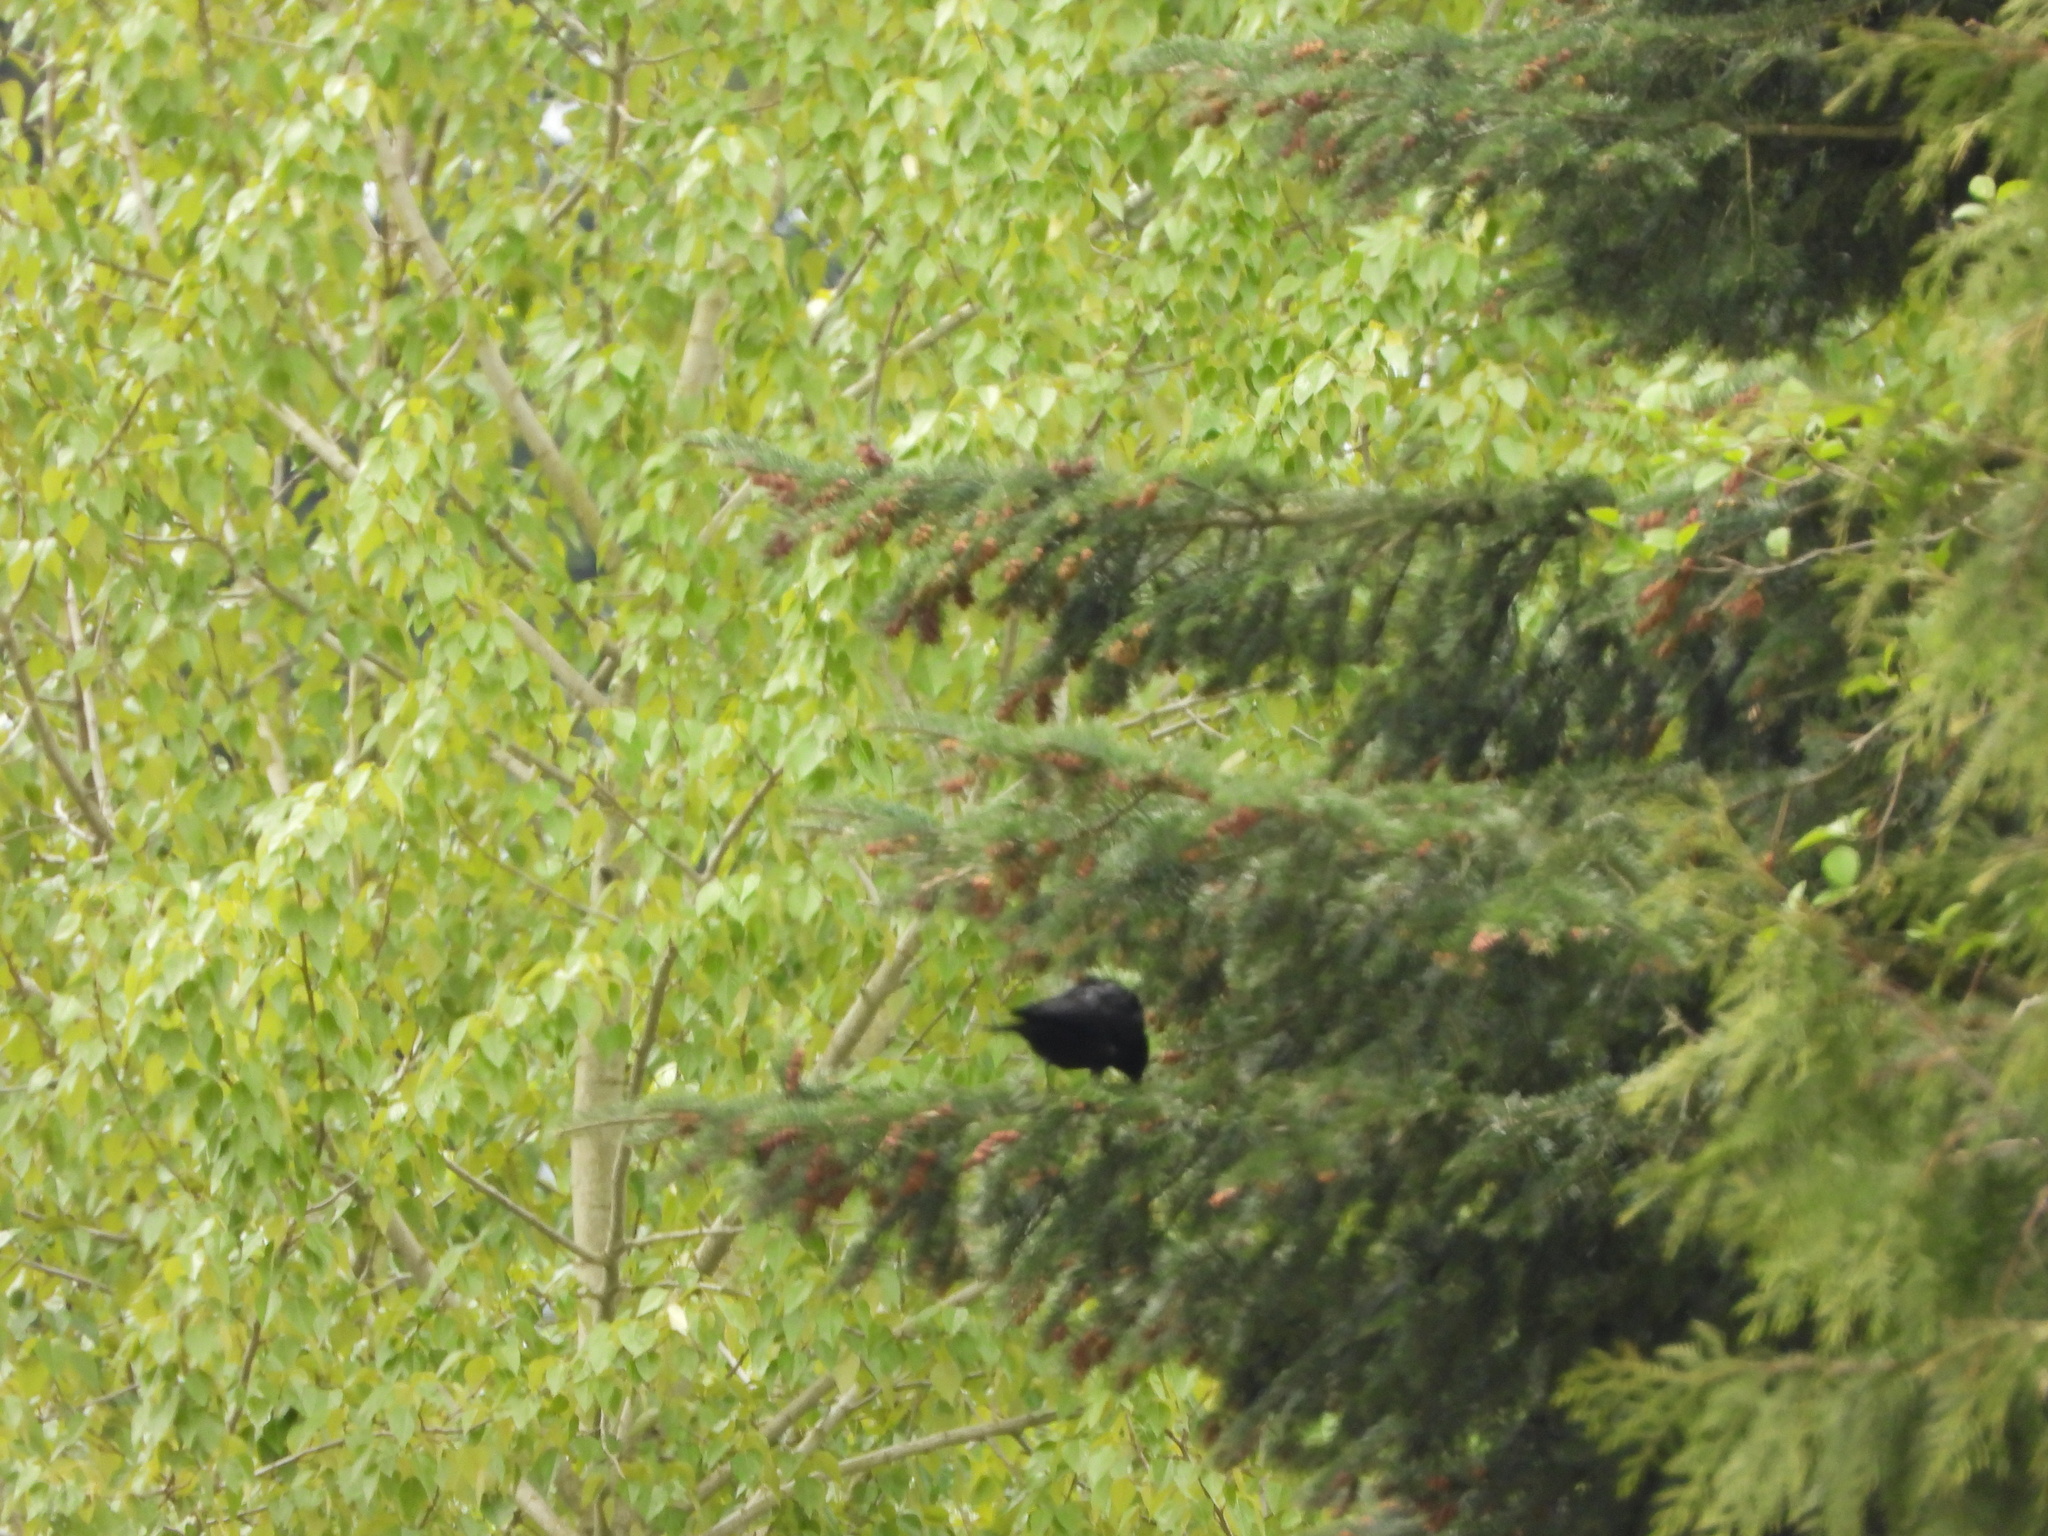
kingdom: Animalia
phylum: Chordata
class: Aves
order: Passeriformes
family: Corvidae
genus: Corvus
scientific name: Corvus brachyrhynchos
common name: American crow
